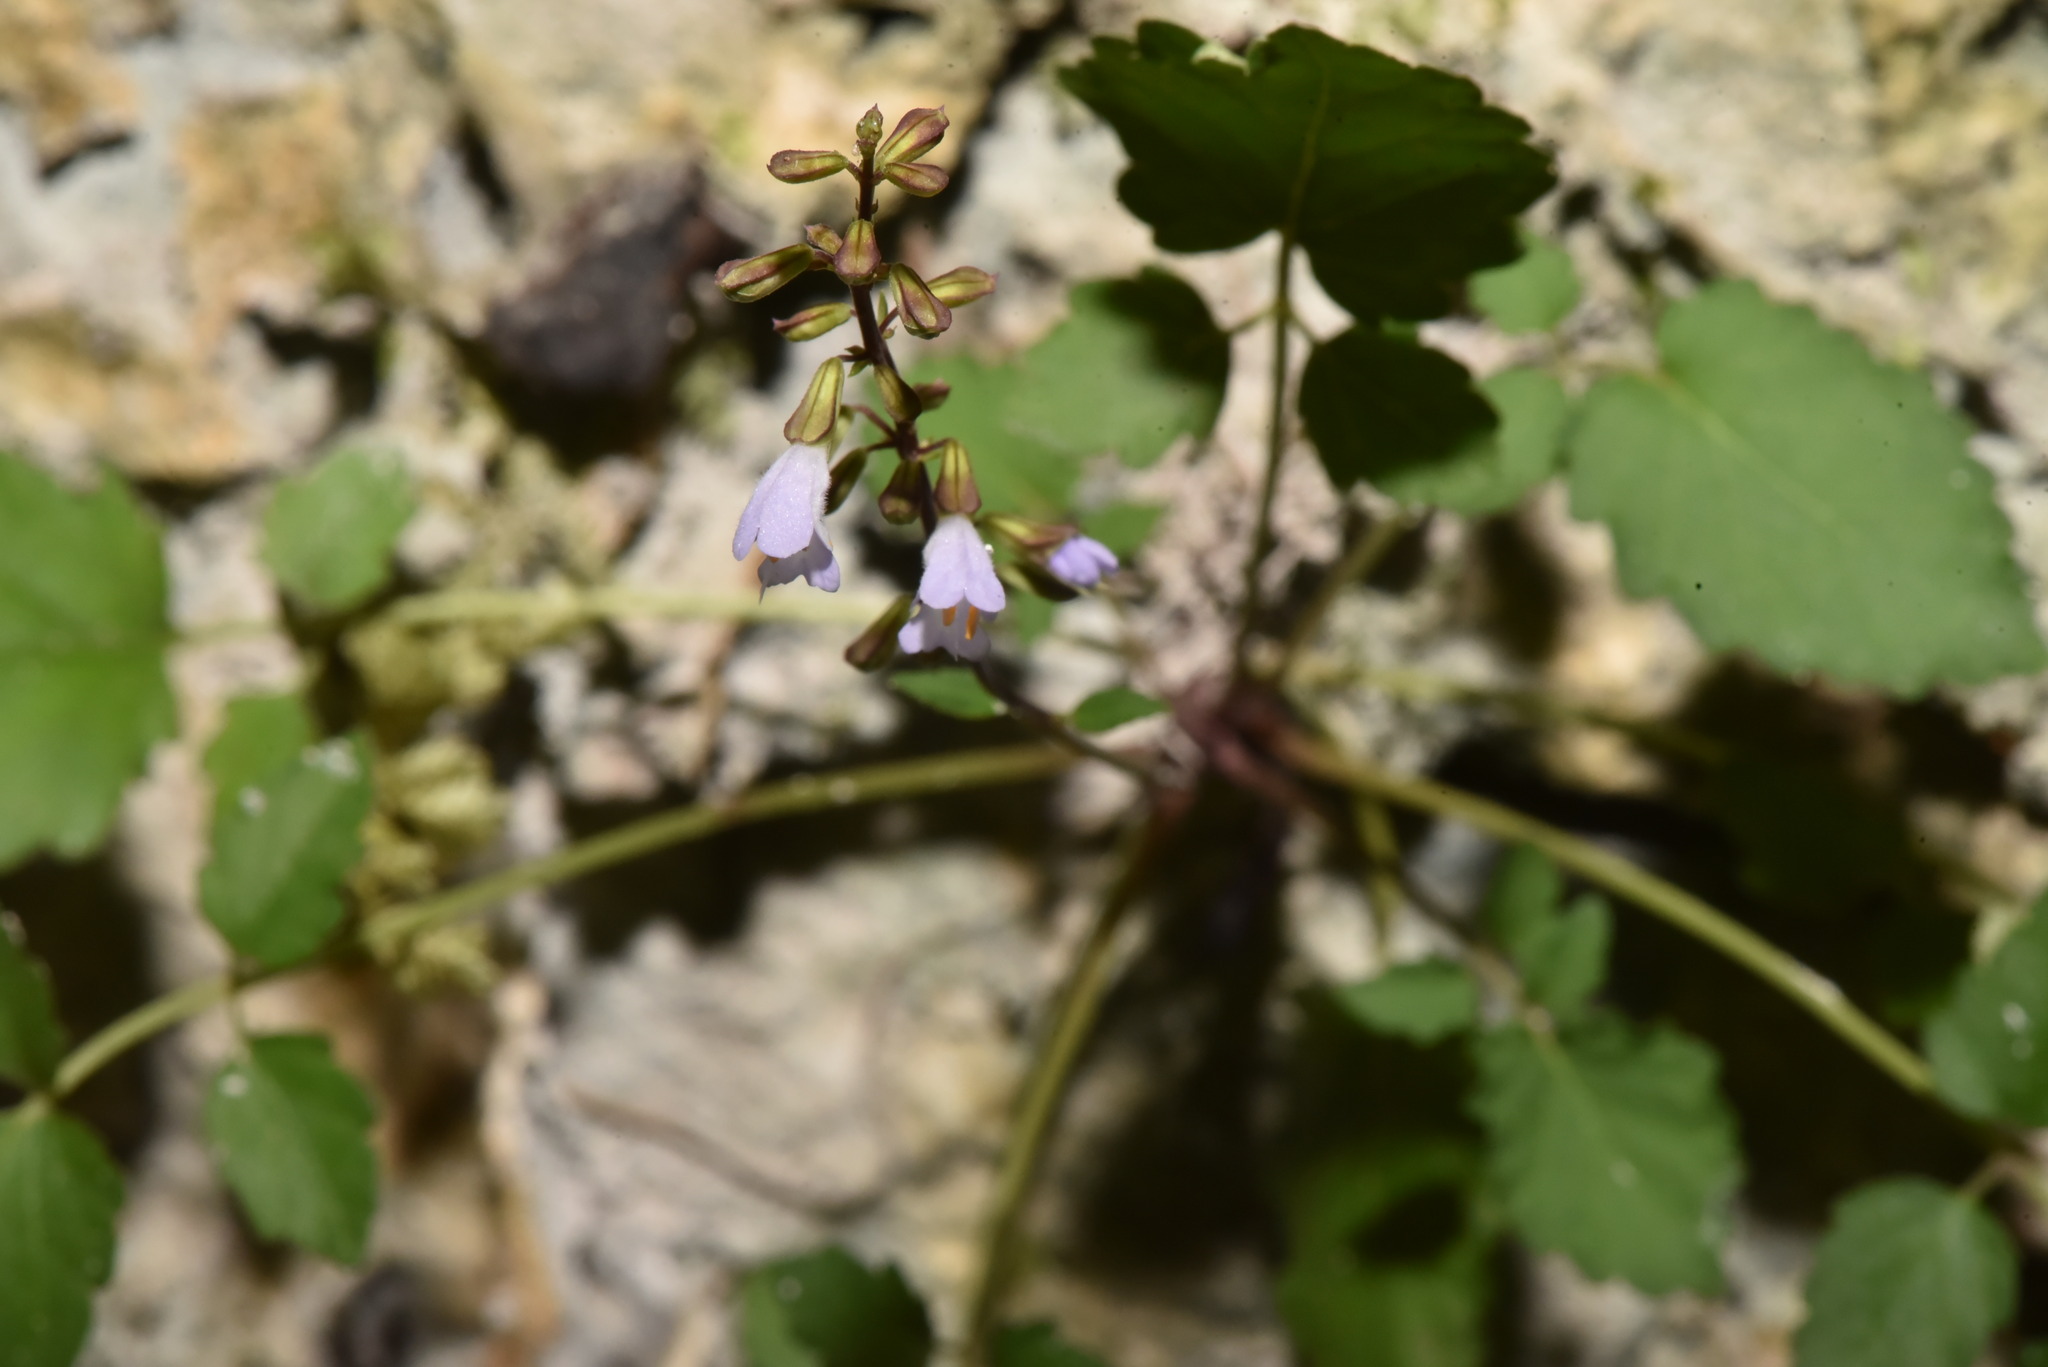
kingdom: Plantae
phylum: Tracheophyta
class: Magnoliopsida
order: Lamiales
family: Lamiaceae
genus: Salvia
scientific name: Salvia hayatae
